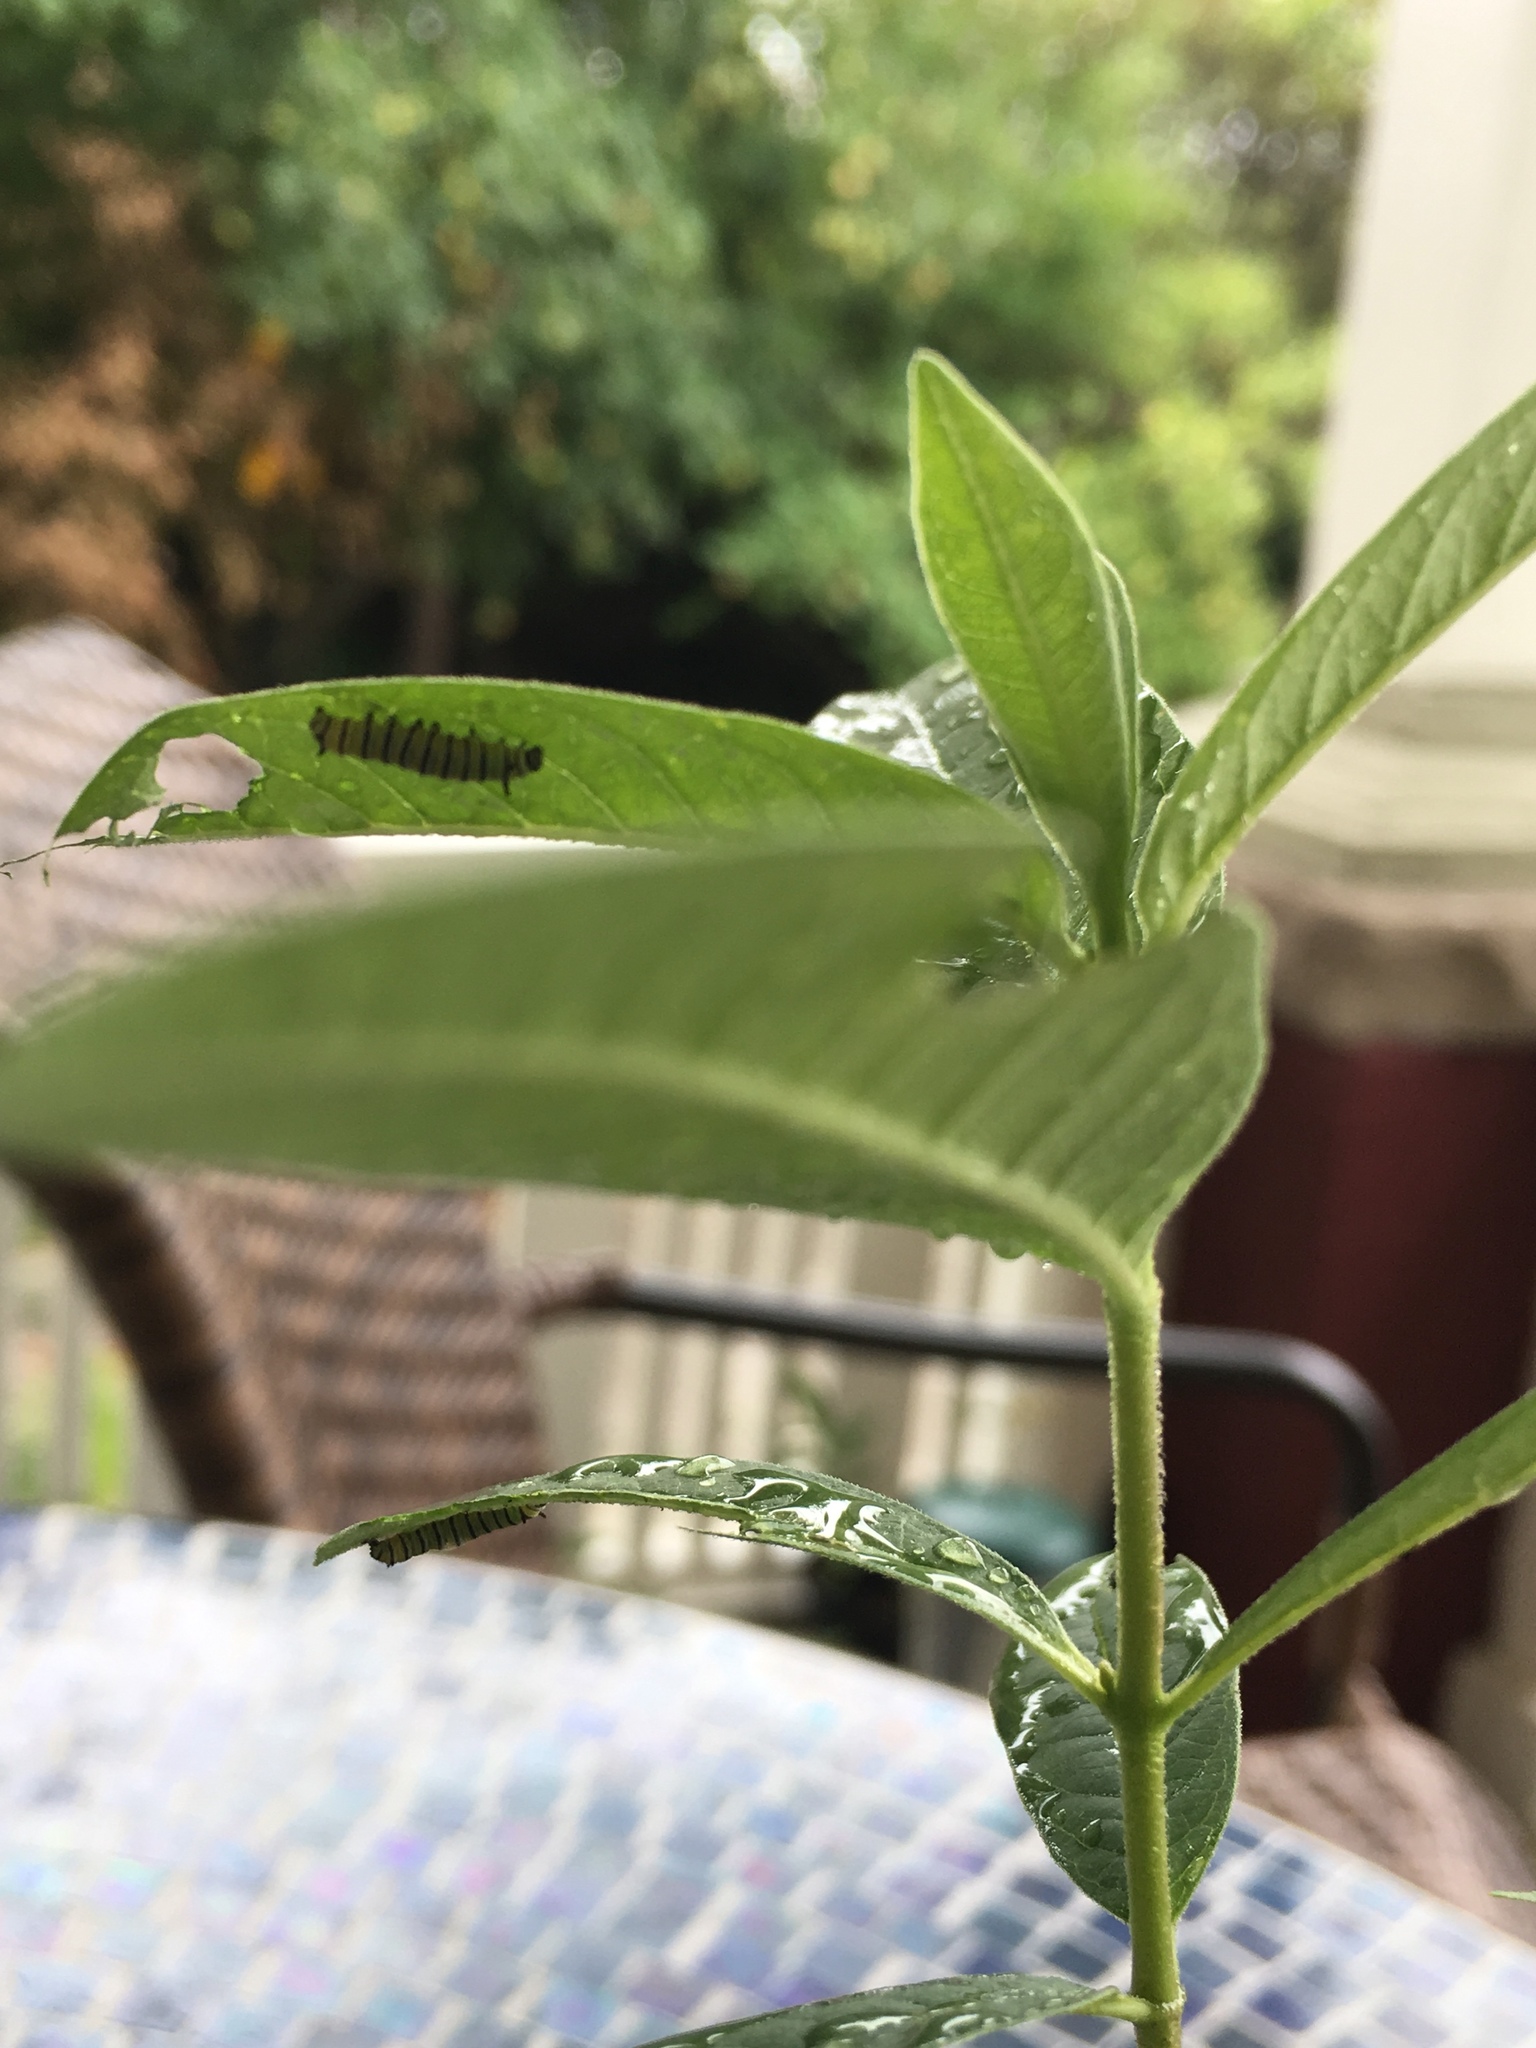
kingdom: Animalia
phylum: Arthropoda
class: Insecta
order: Lepidoptera
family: Nymphalidae
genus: Danaus
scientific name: Danaus plexippus
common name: Monarch
